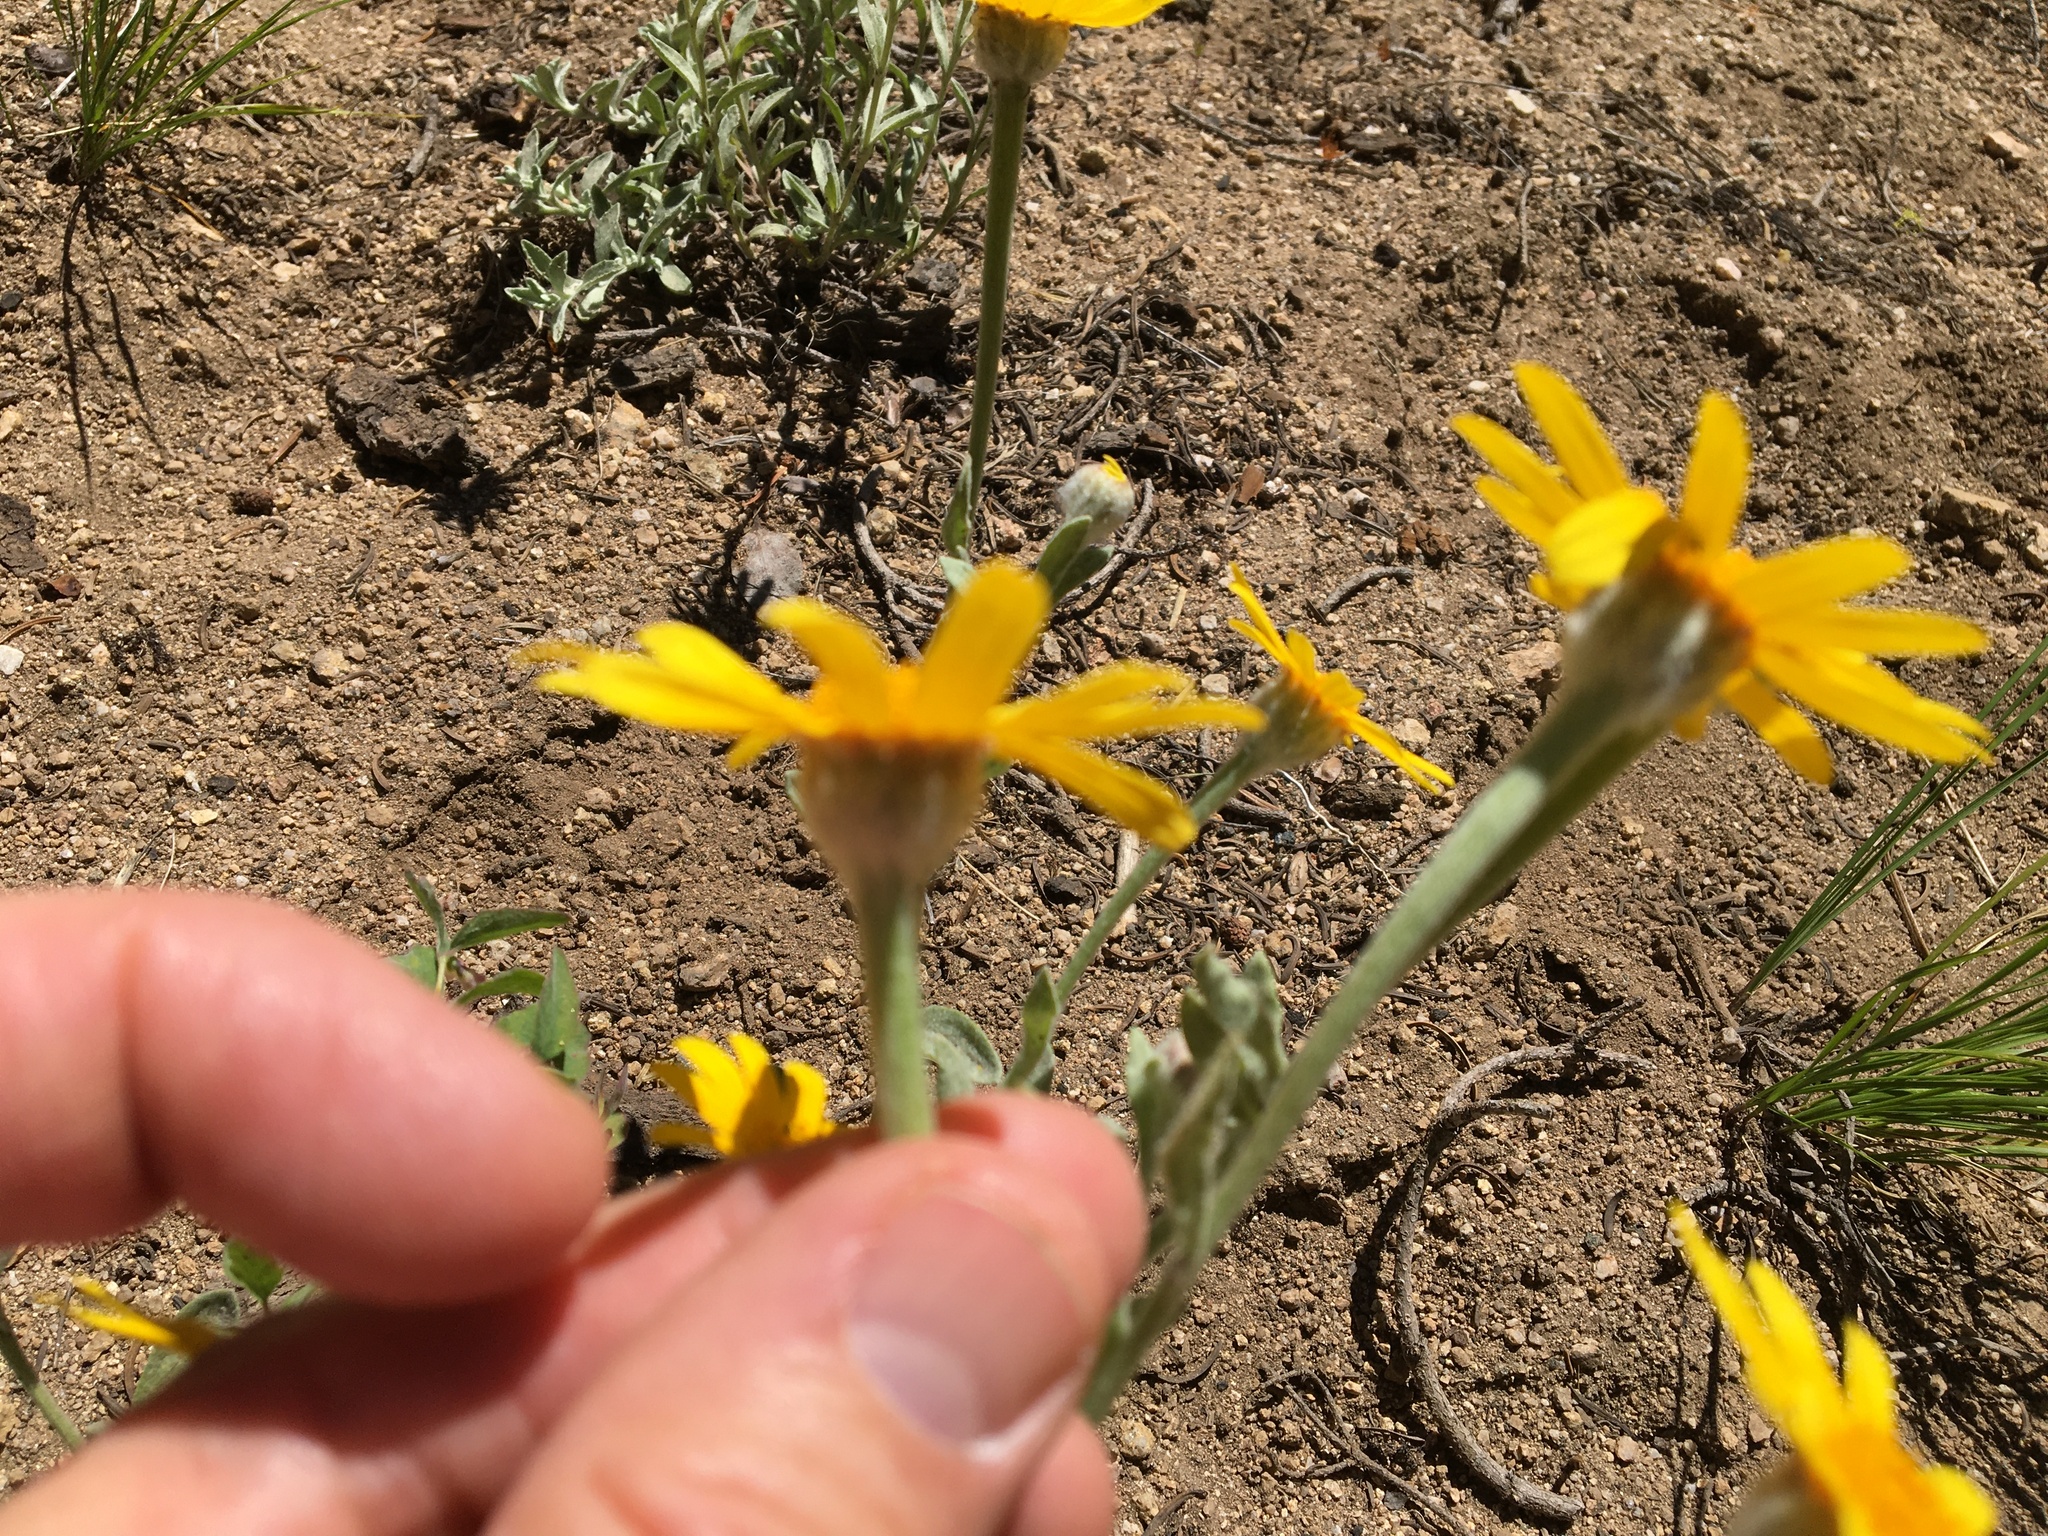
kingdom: Plantae
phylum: Tracheophyta
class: Magnoliopsida
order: Asterales
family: Asteraceae
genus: Eriophyllum
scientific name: Eriophyllum lanatum
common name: Common woolly-sunflower
